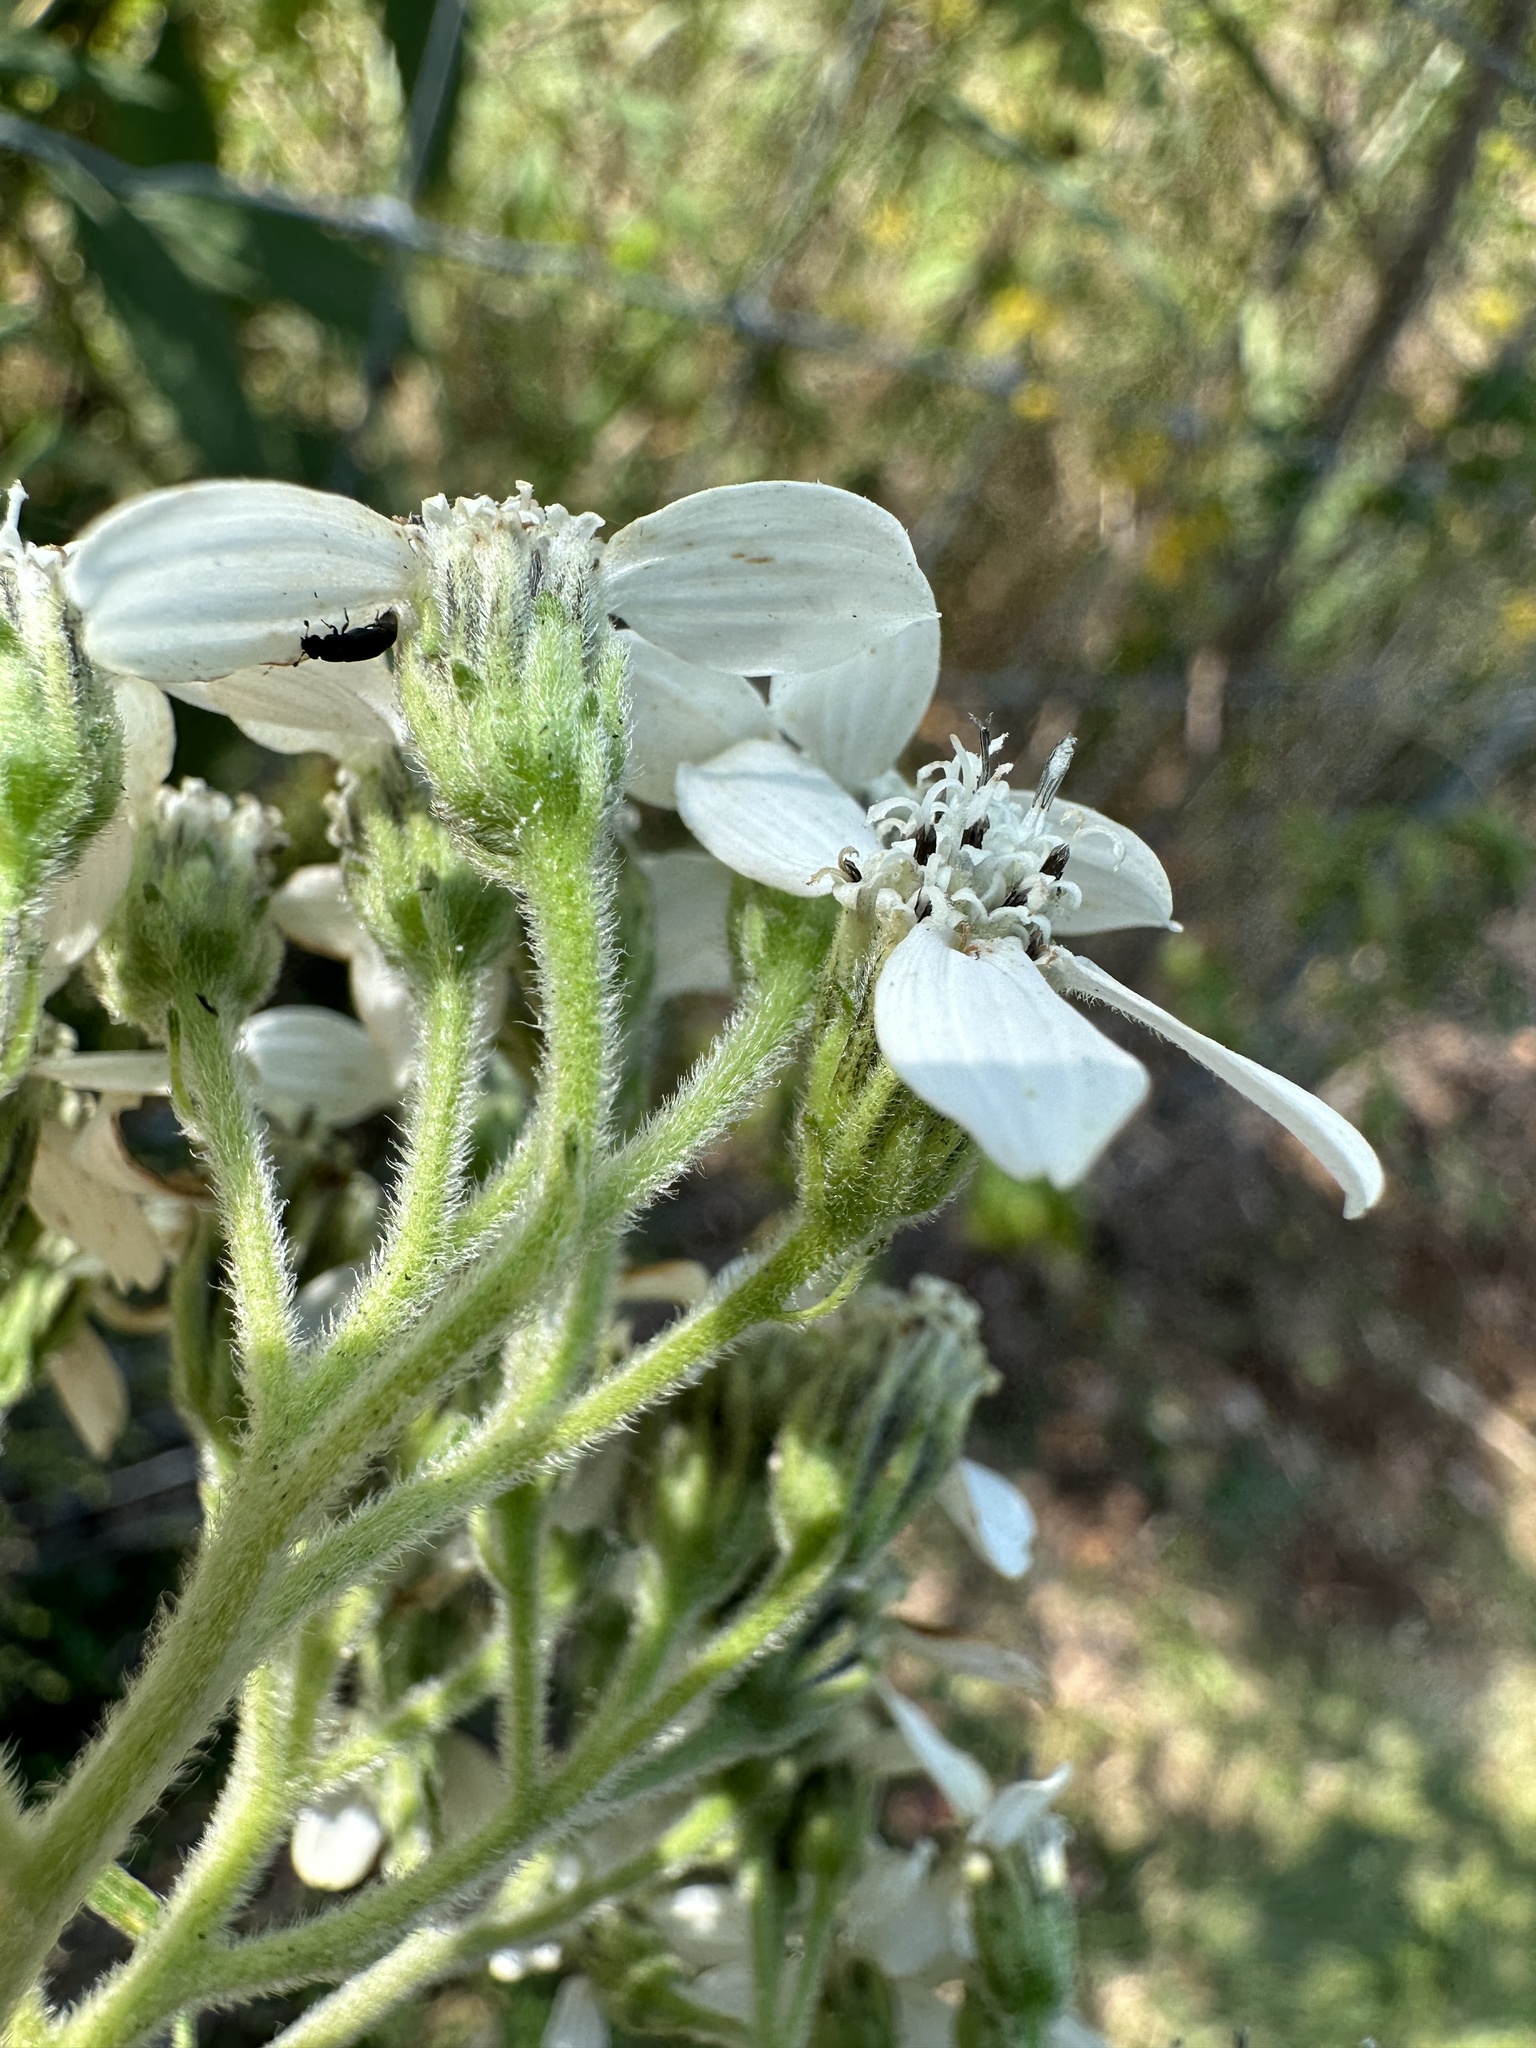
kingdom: Plantae
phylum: Tracheophyta
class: Magnoliopsida
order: Asterales
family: Asteraceae
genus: Verbesina
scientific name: Verbesina virginica
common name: Frostweed
